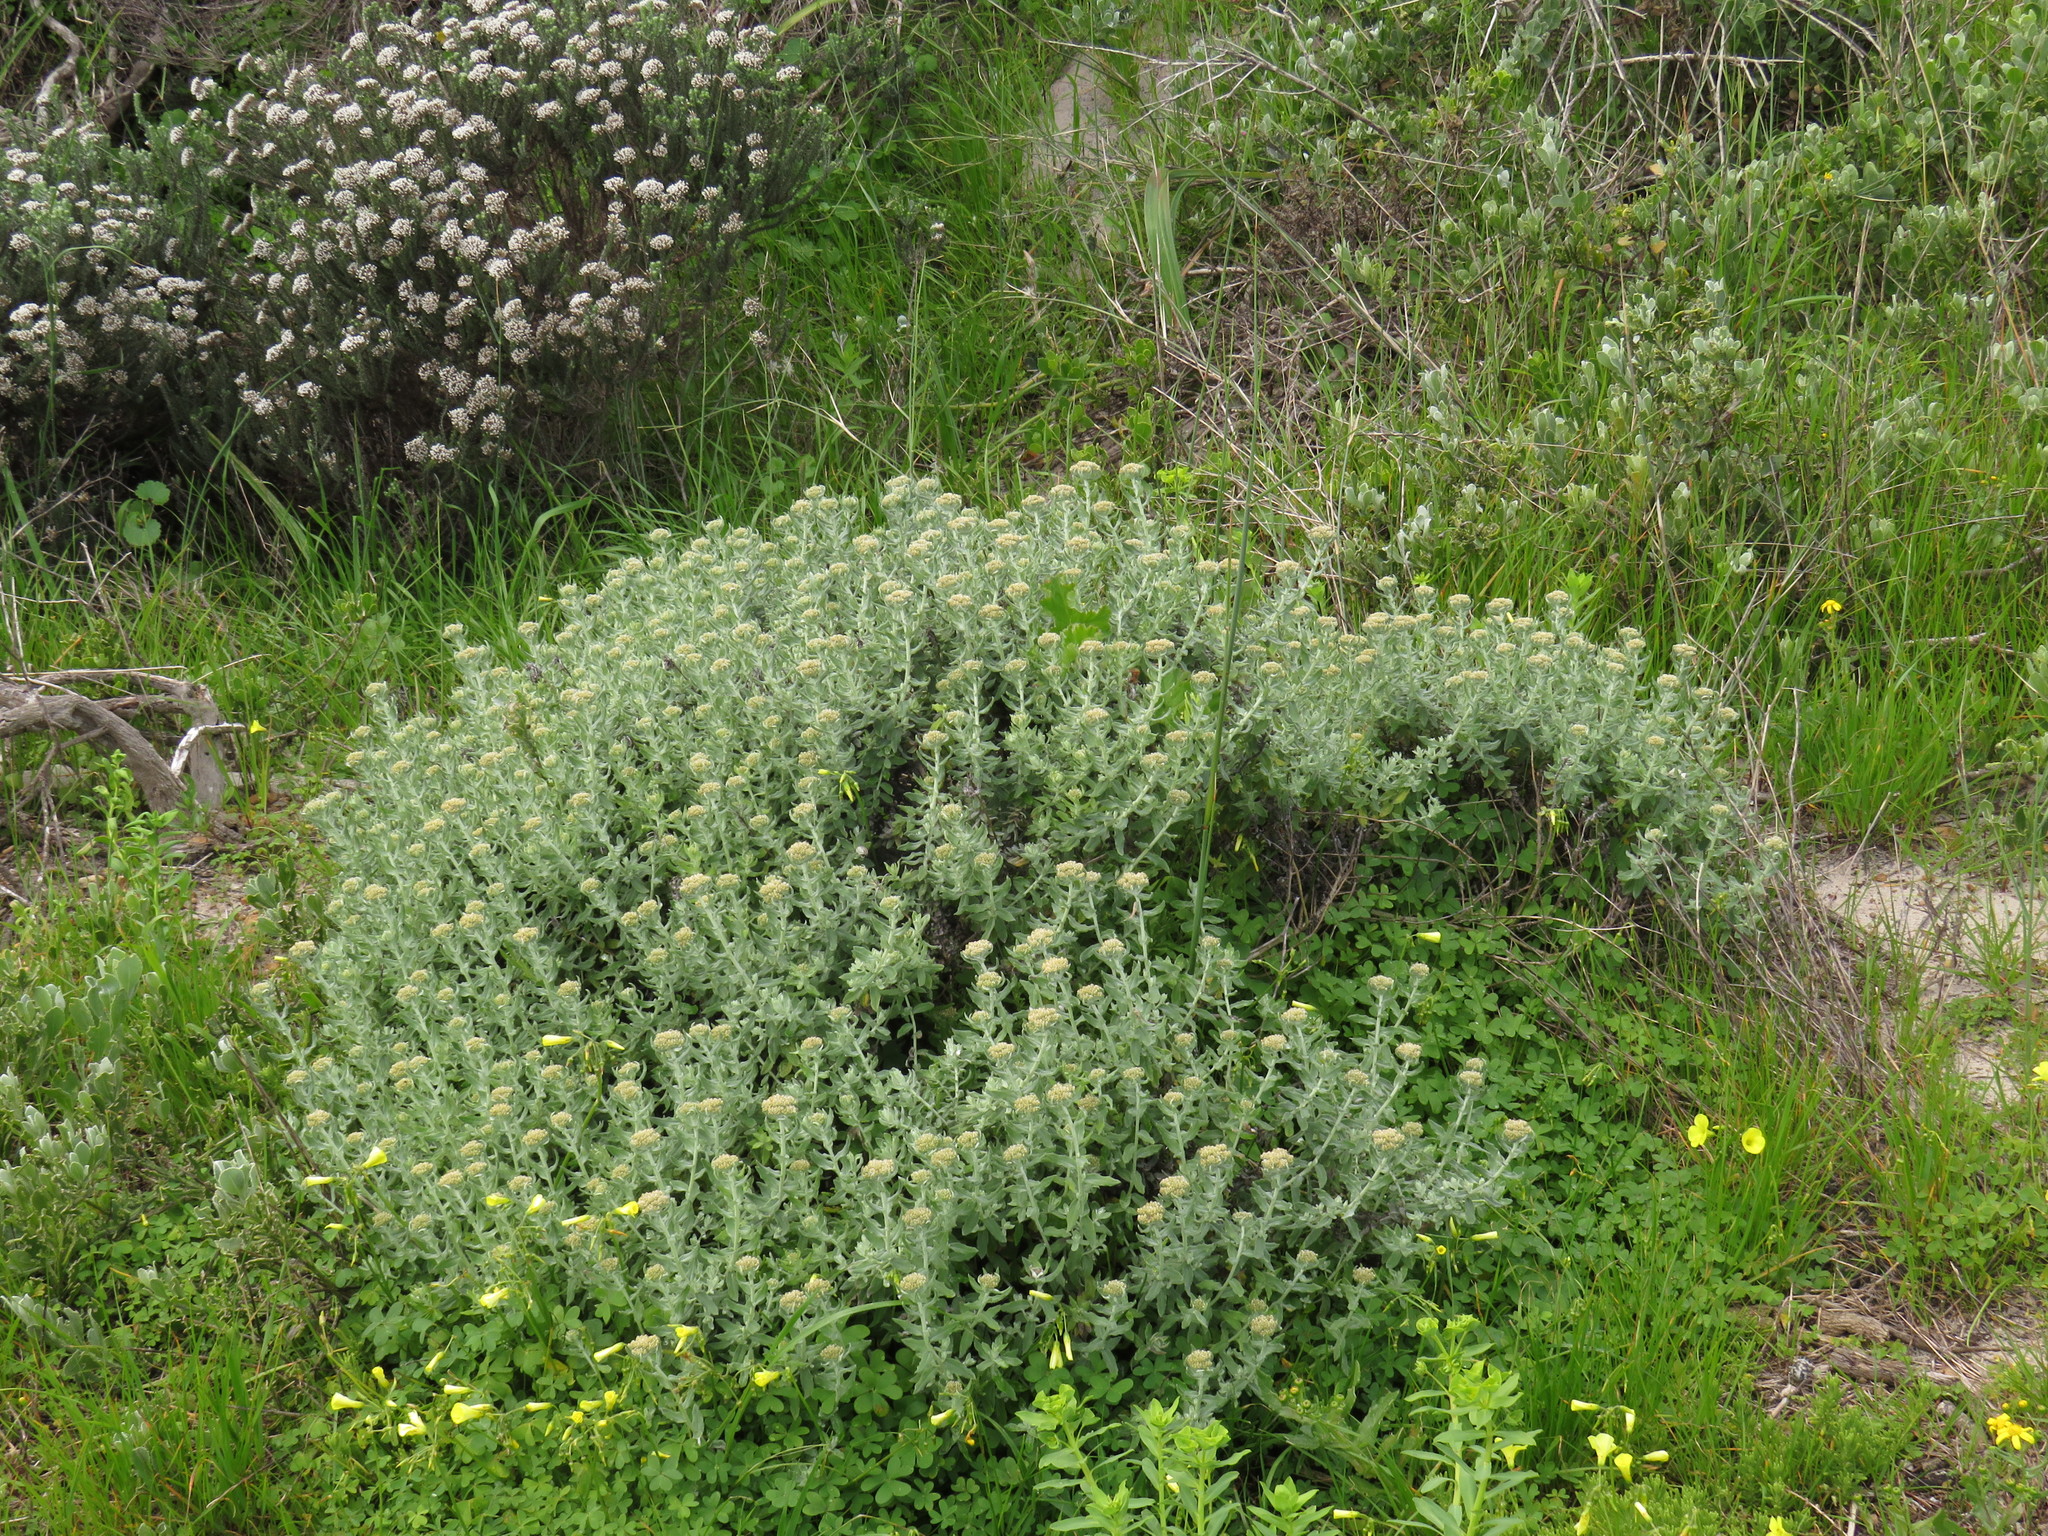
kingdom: Plantae
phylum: Tracheophyta
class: Magnoliopsida
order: Asterales
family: Asteraceae
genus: Helichrysum
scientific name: Helichrysum dasyanthum
